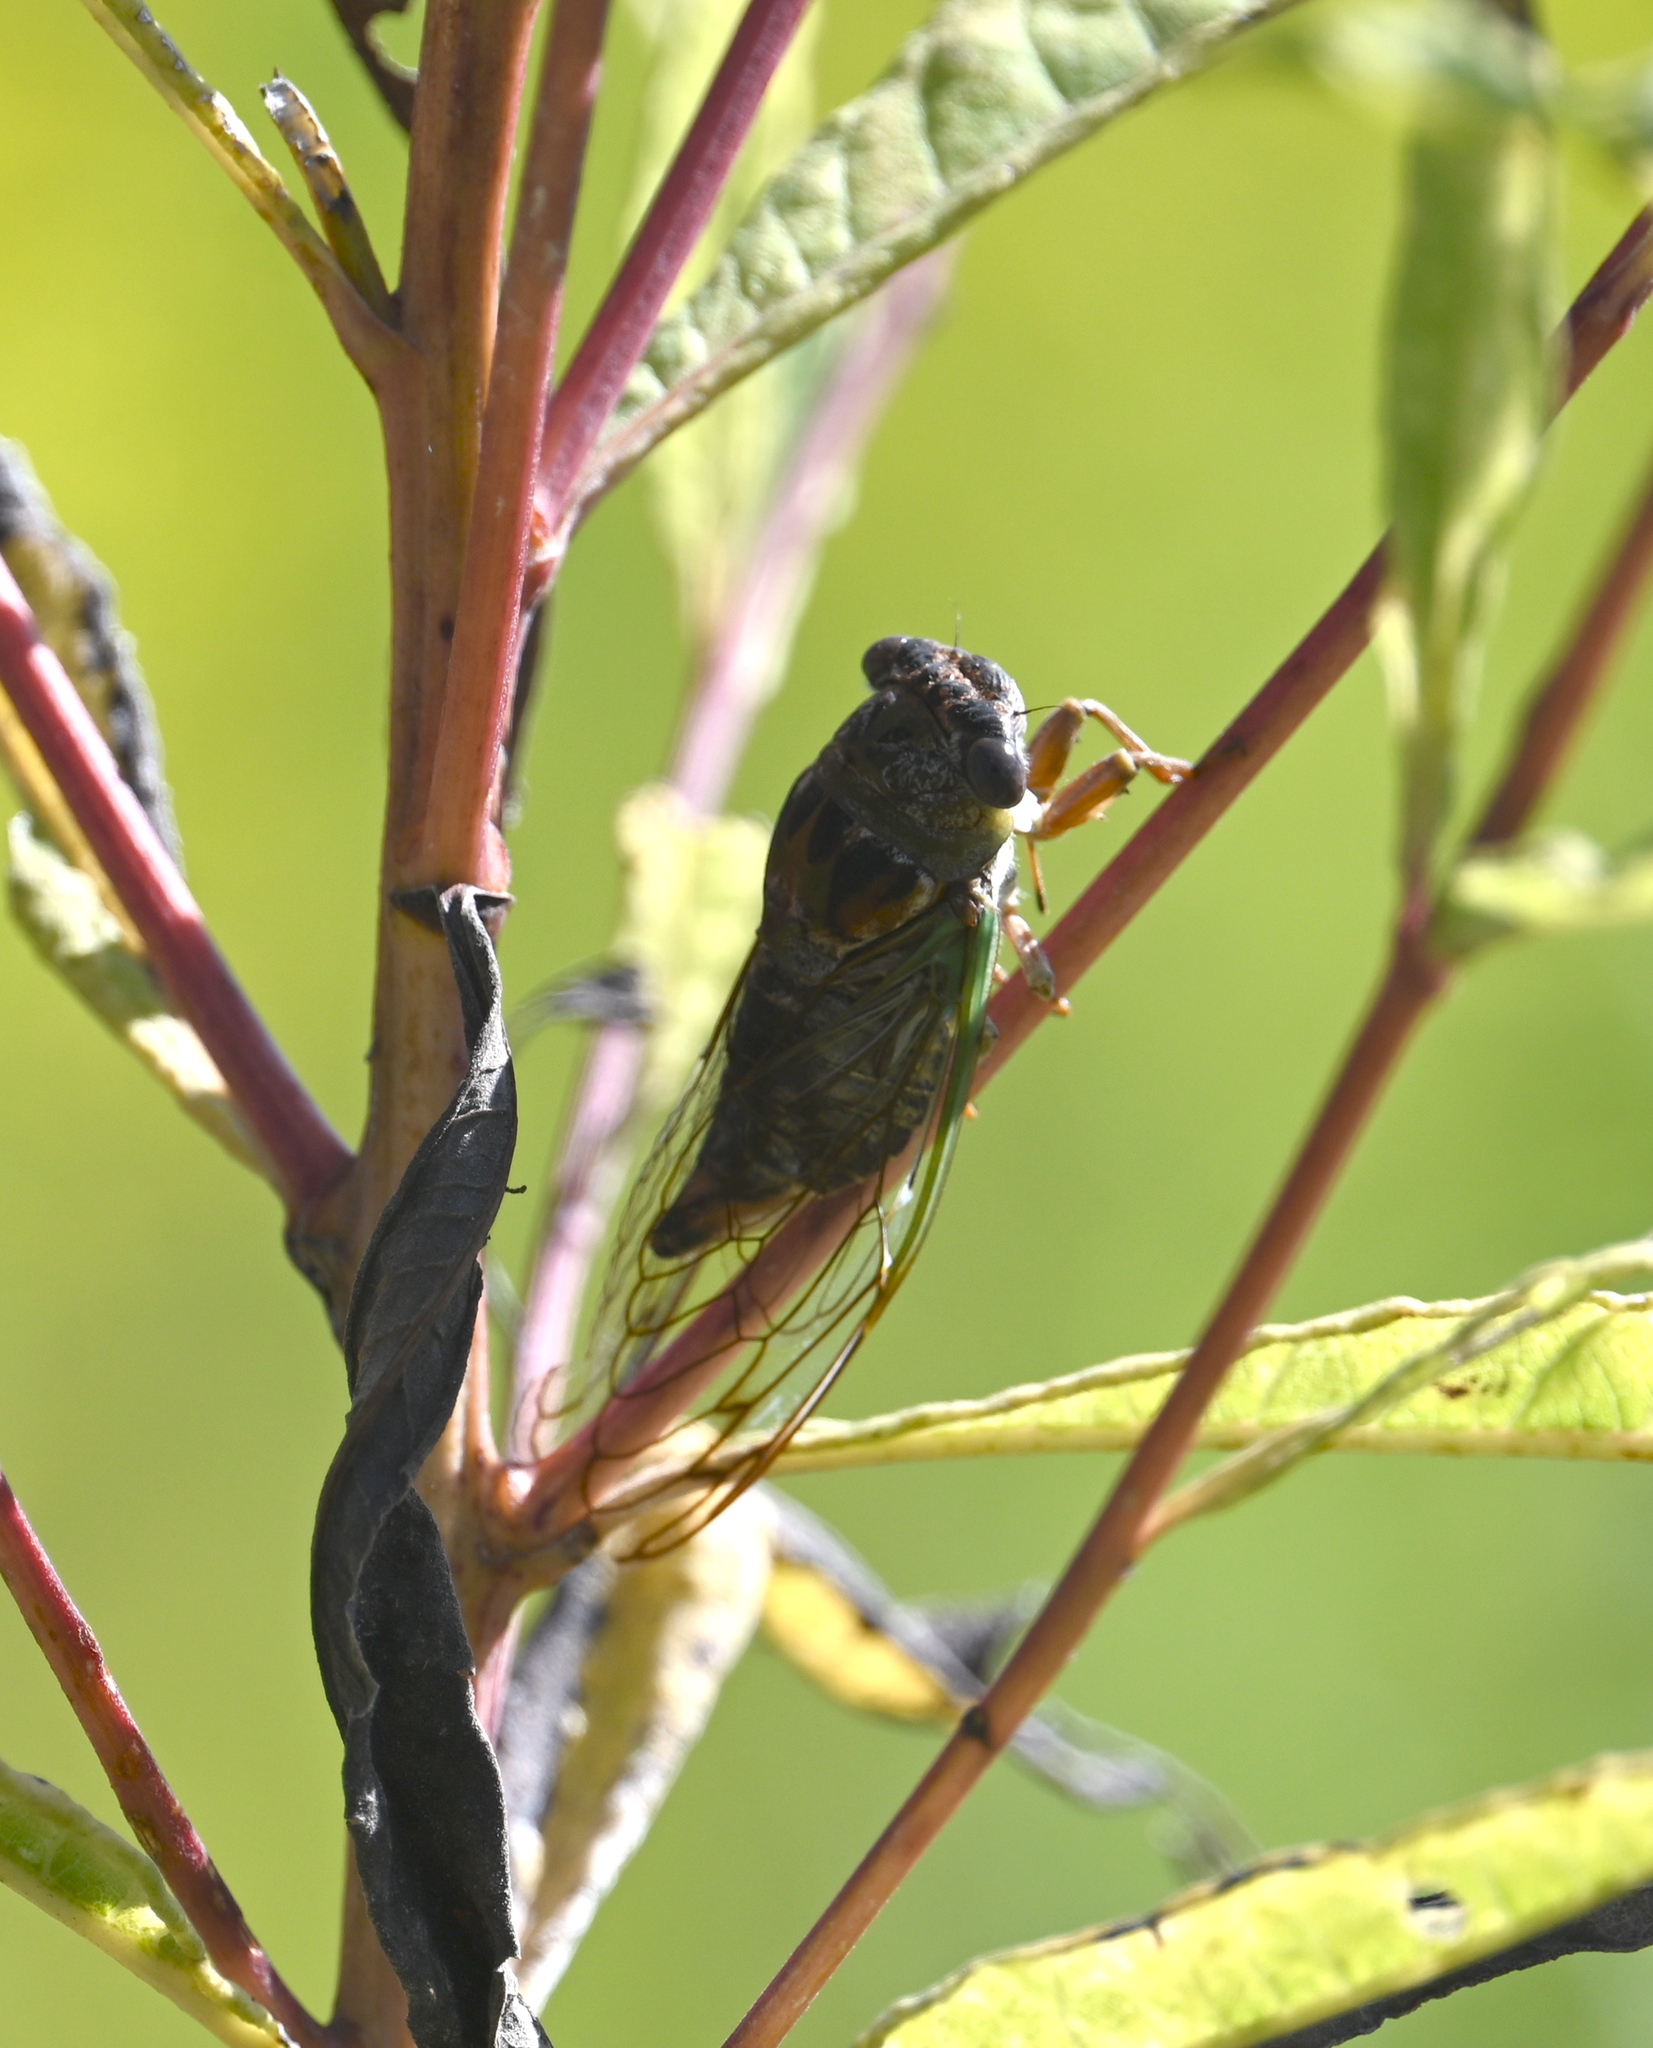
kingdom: Animalia
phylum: Arthropoda
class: Insecta
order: Hemiptera
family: Cicadidae
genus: Neotibicen
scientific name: Neotibicen davisi
